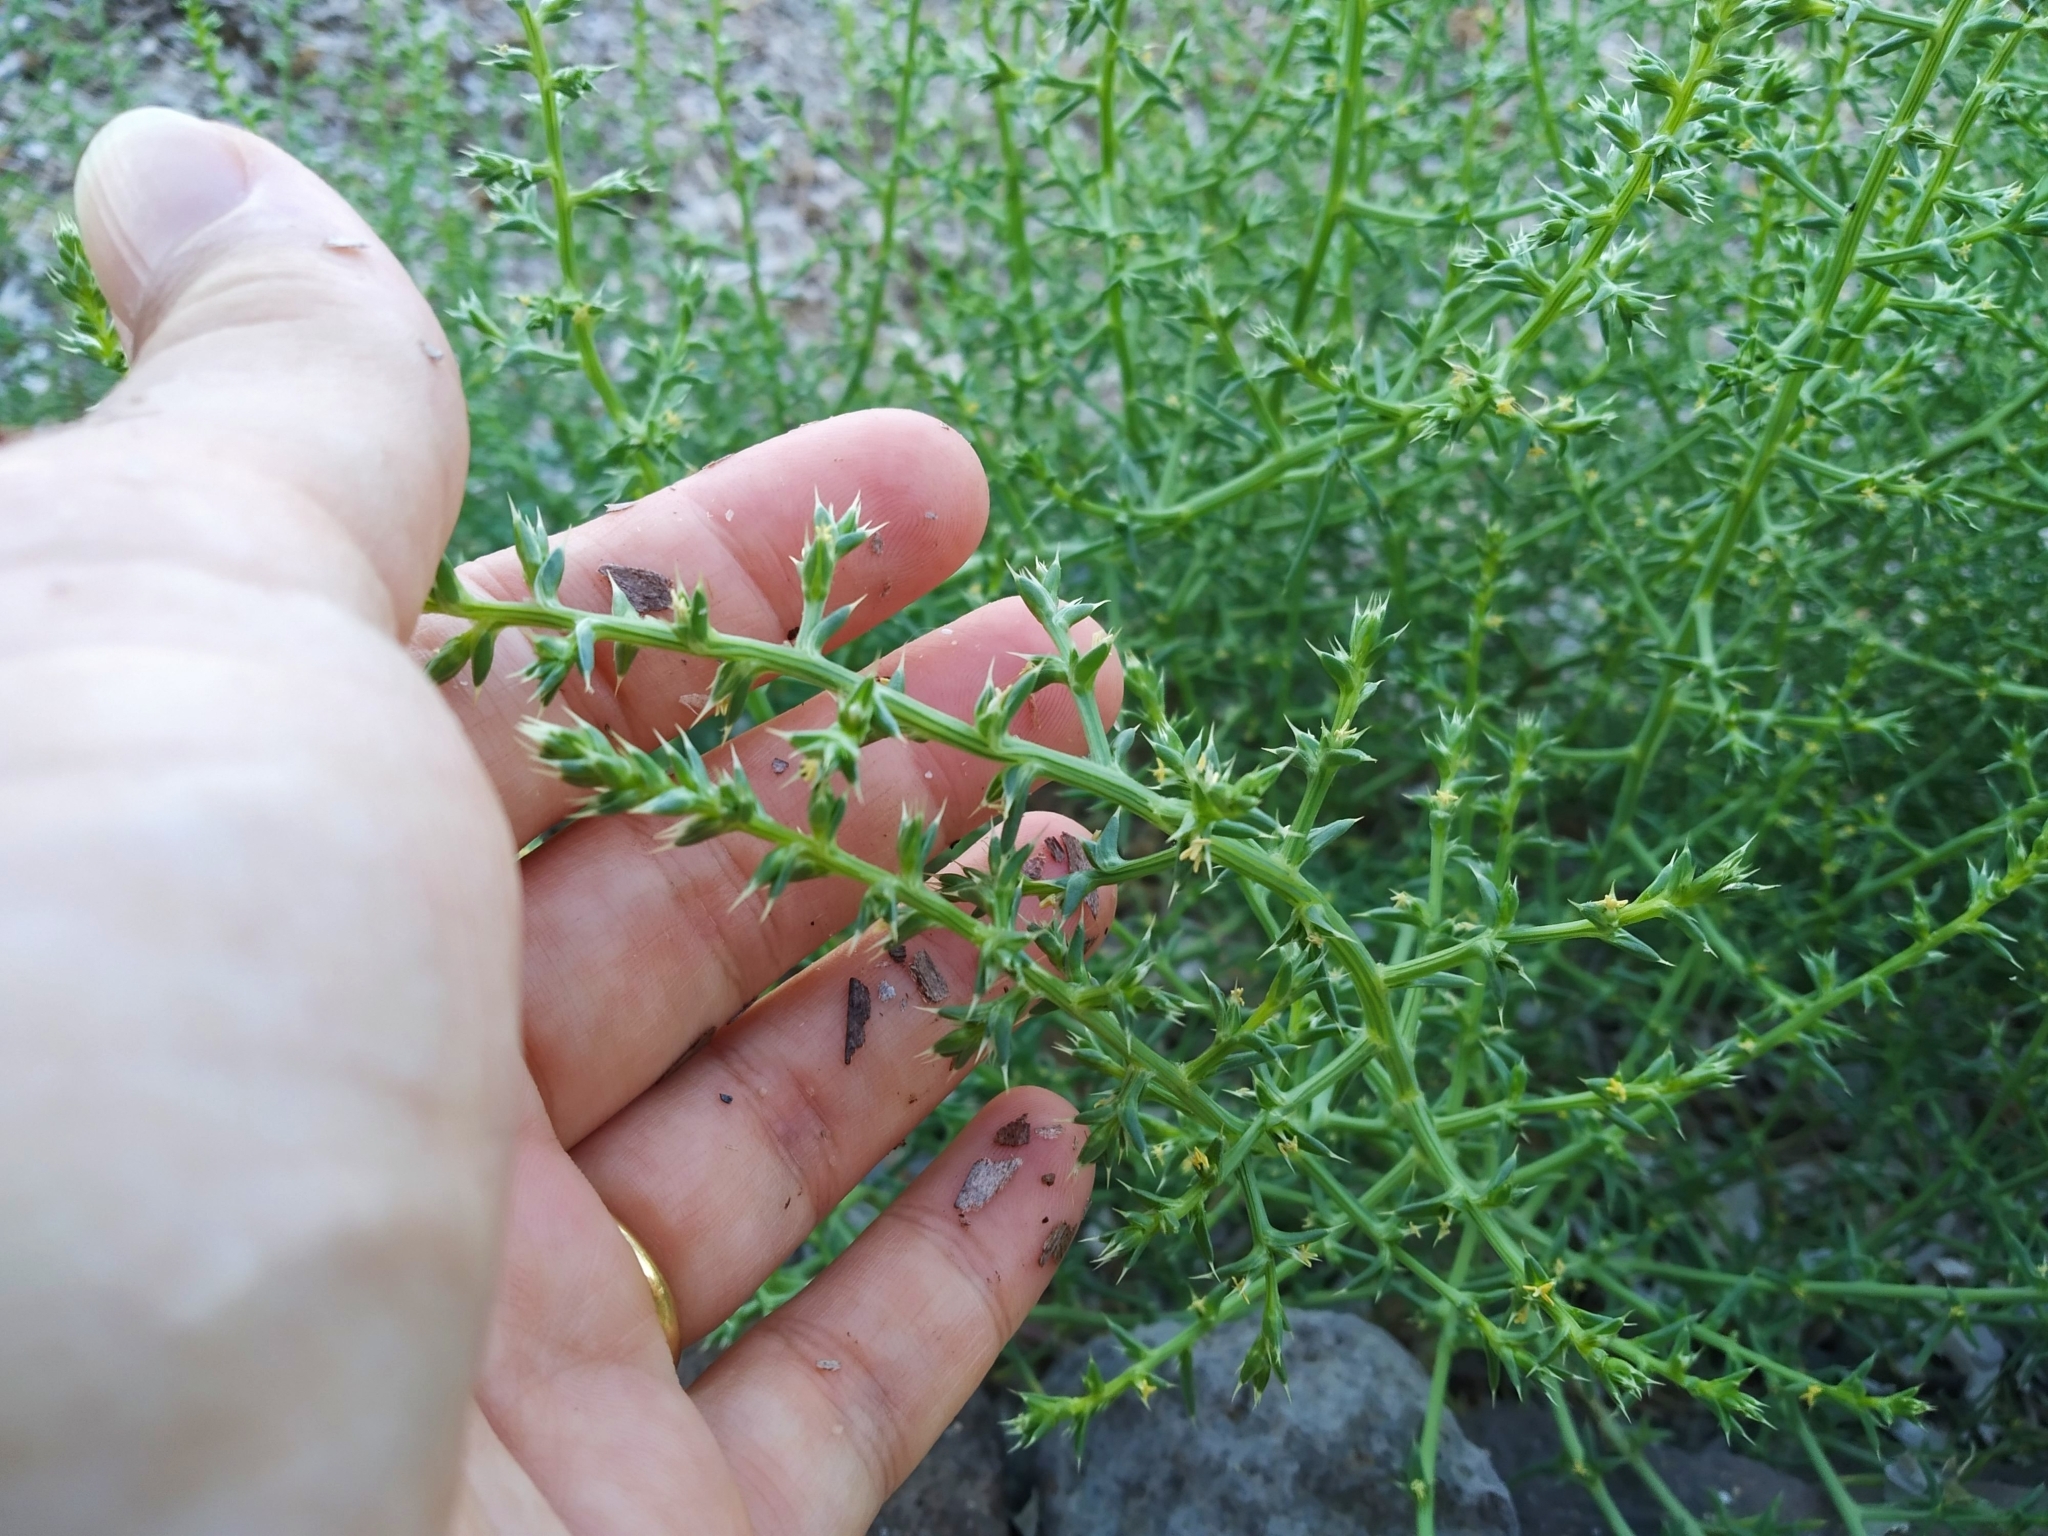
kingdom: Plantae
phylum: Tracheophyta
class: Magnoliopsida
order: Caryophyllales
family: Amaranthaceae
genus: Salsola
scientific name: Salsola squarrosa
